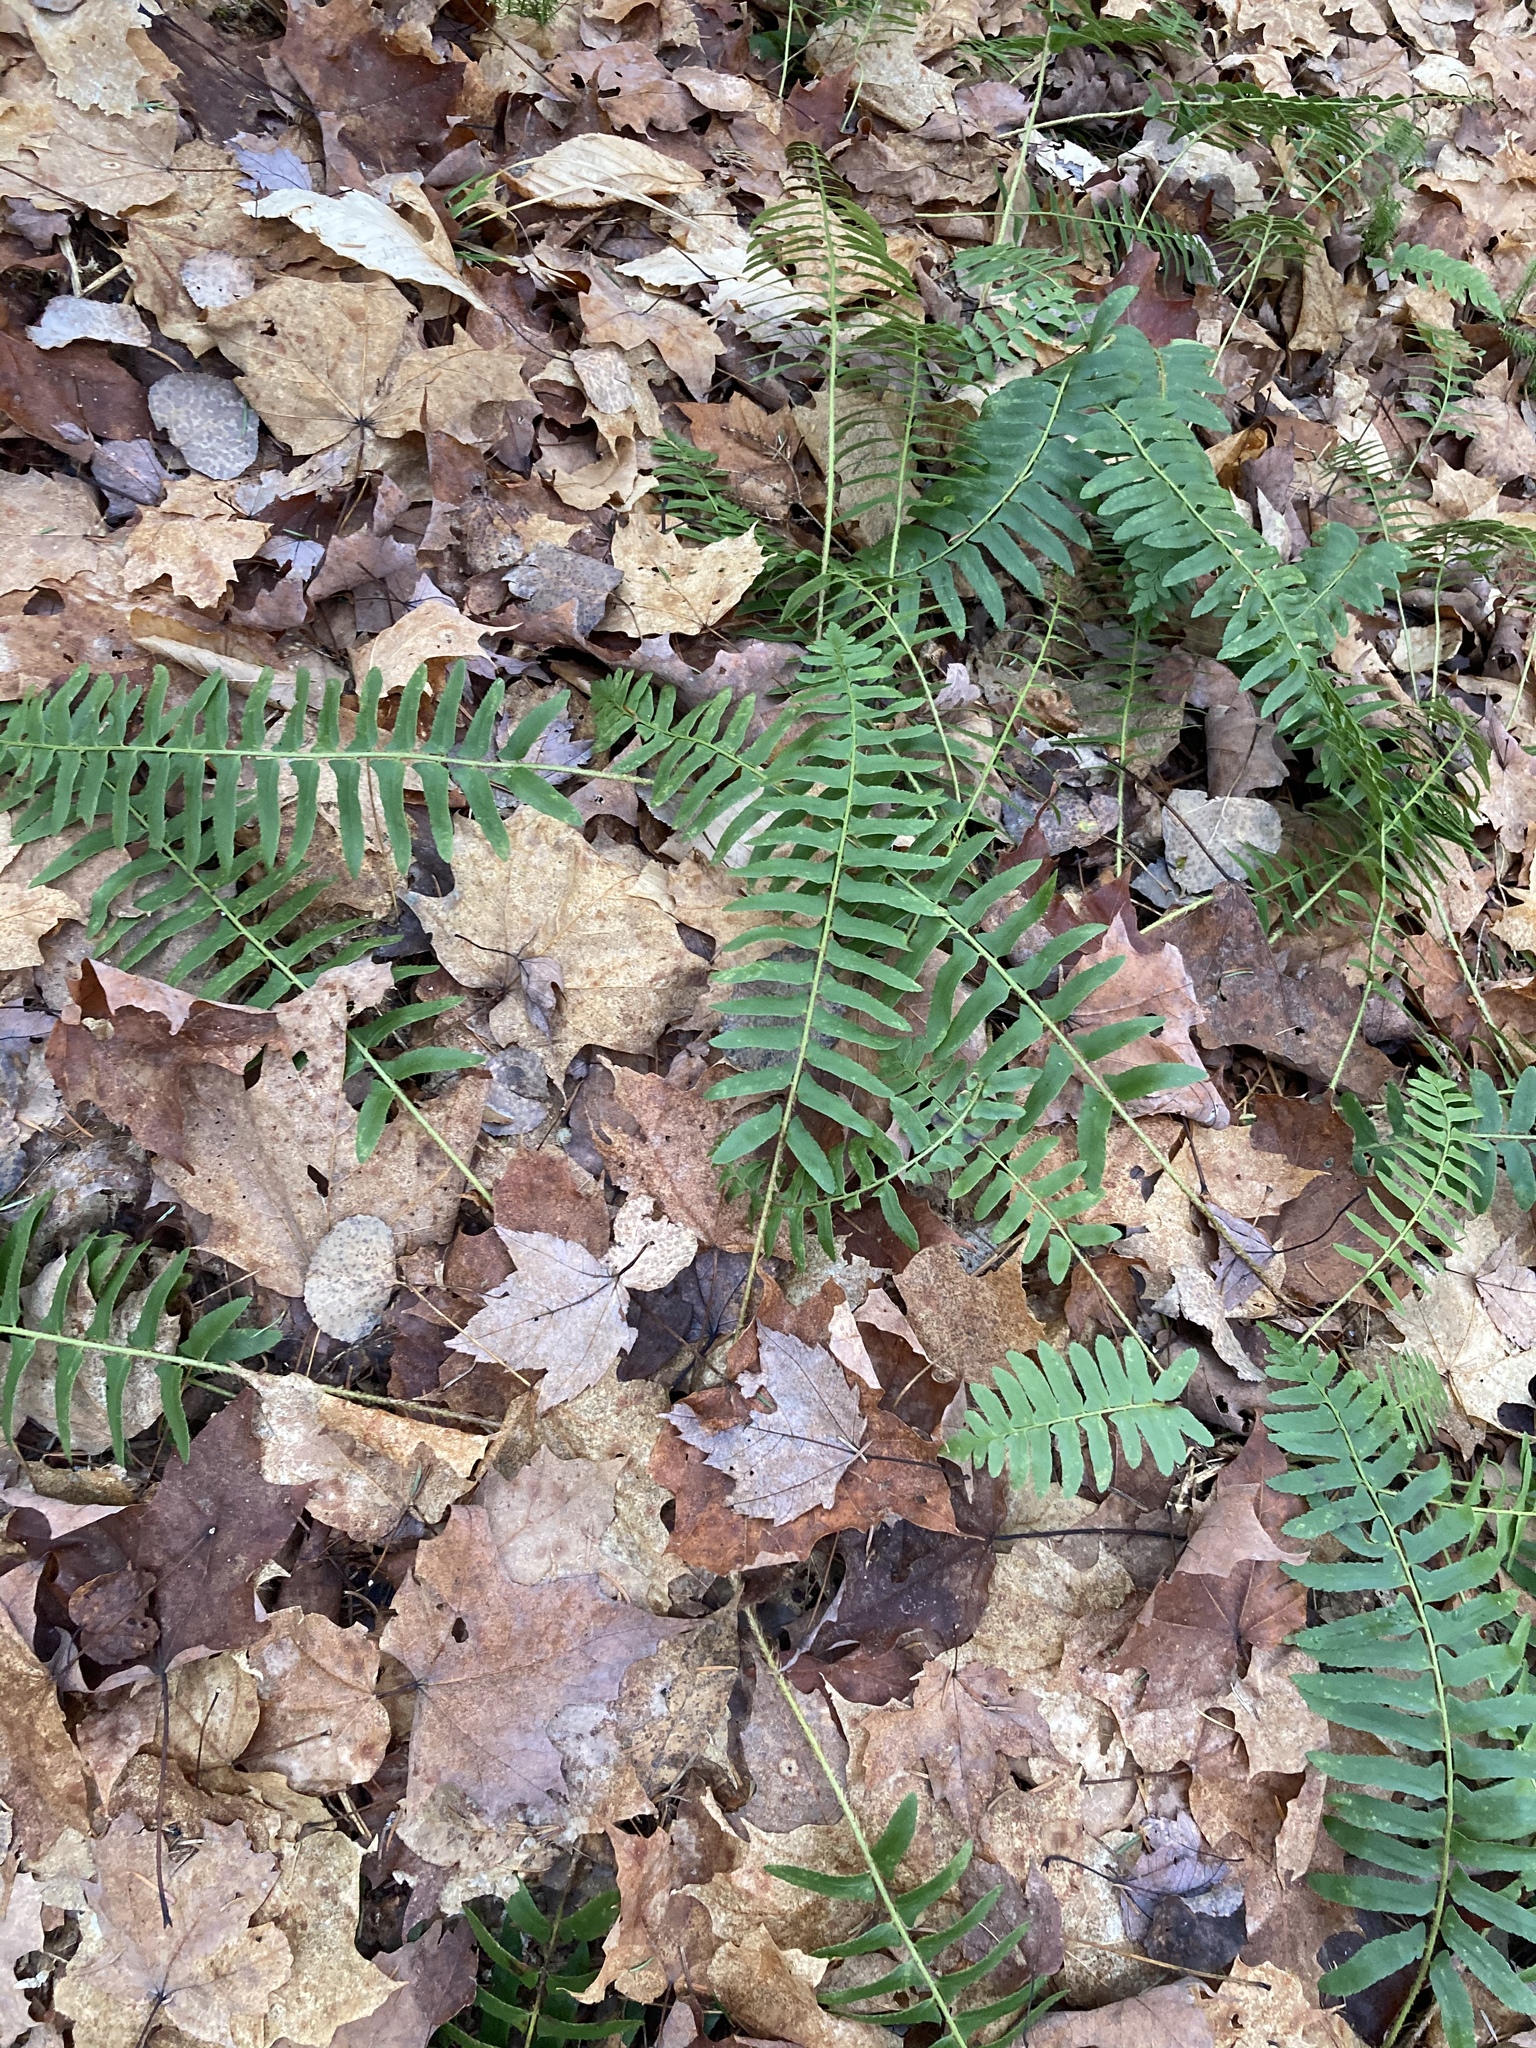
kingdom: Plantae
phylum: Tracheophyta
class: Polypodiopsida
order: Polypodiales
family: Dryopteridaceae
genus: Polystichum
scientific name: Polystichum acrostichoides
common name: Christmas fern
